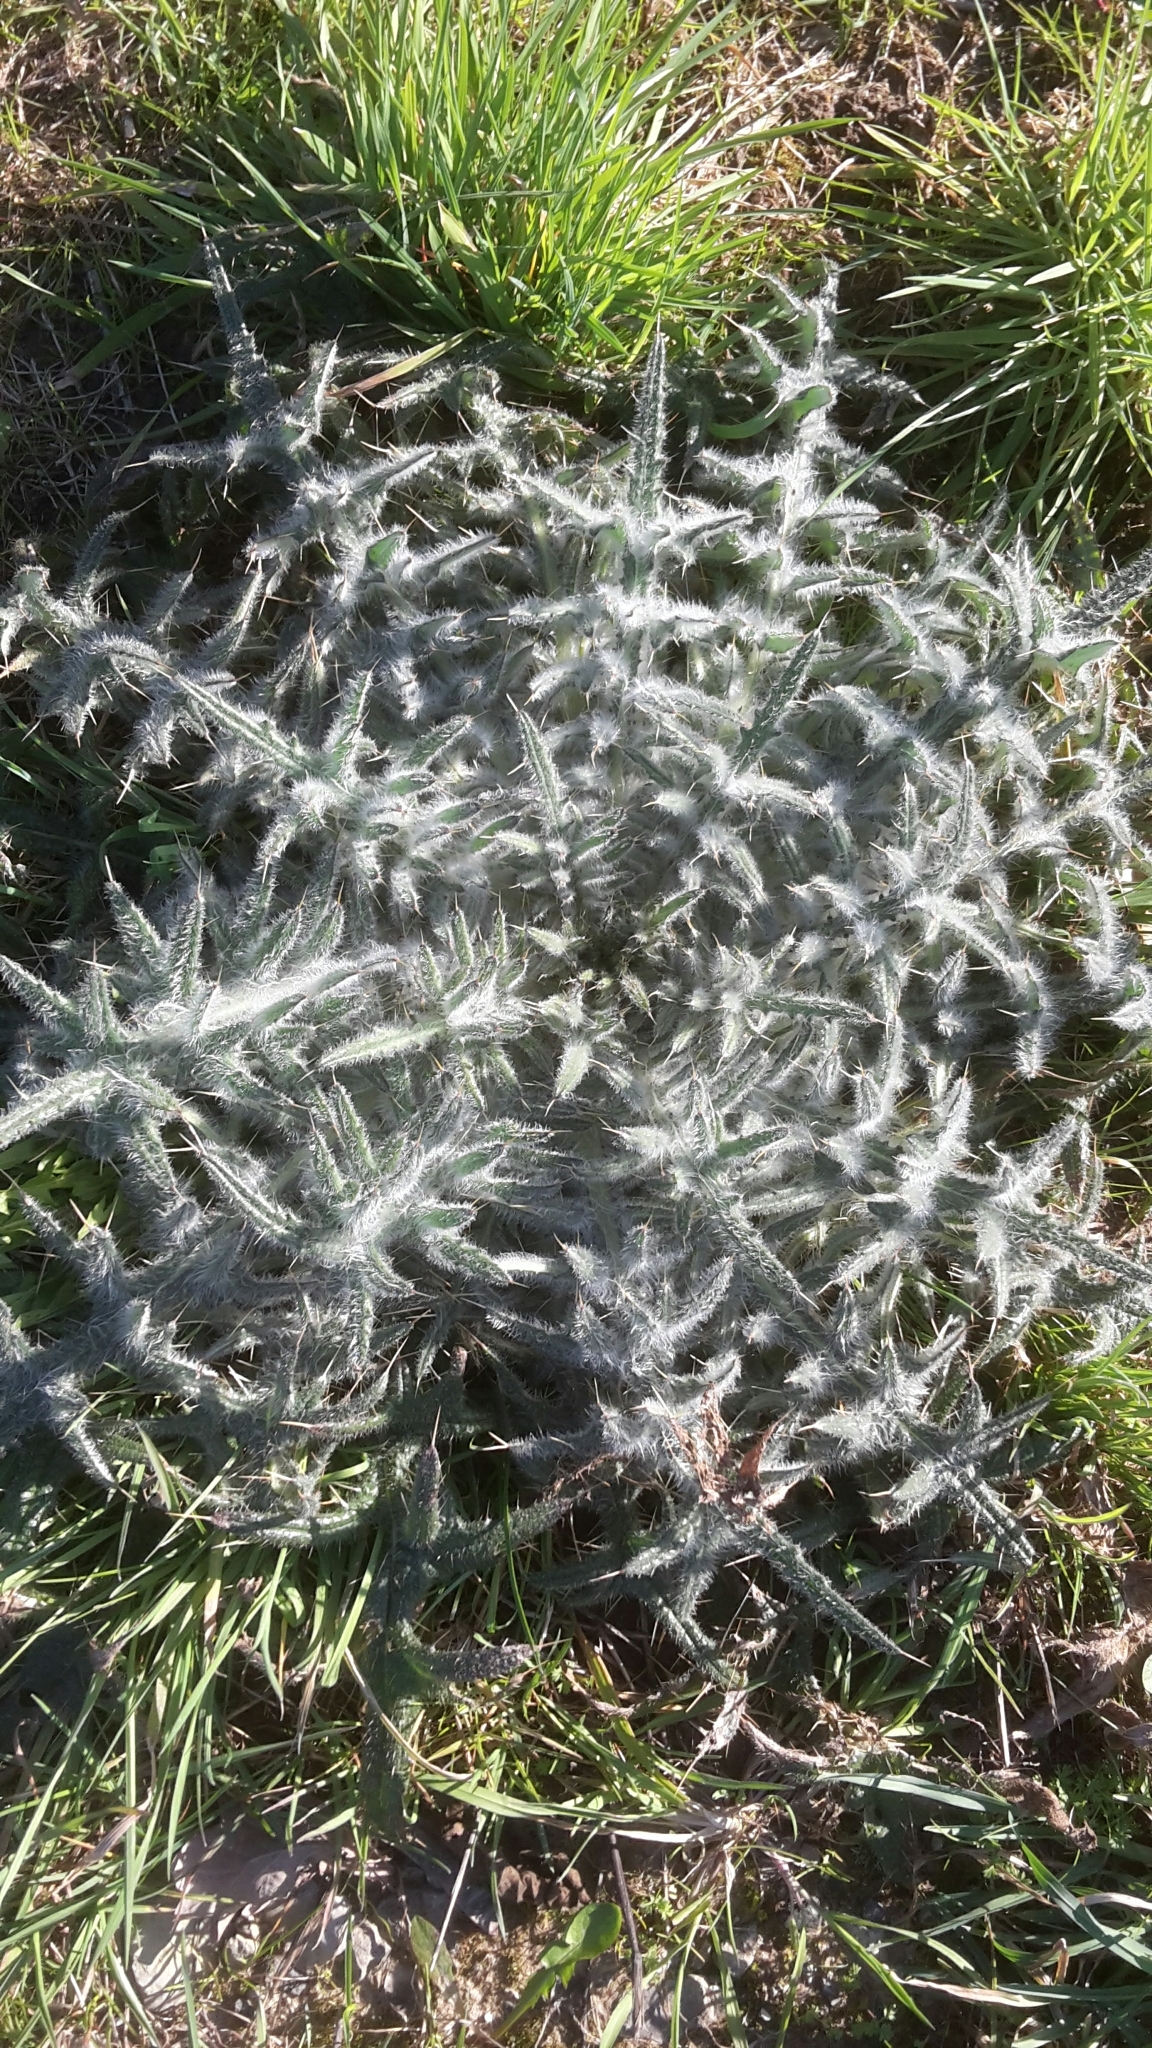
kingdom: Plantae
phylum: Tracheophyta
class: Magnoliopsida
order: Asterales
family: Asteraceae
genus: Cirsium
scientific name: Cirsium vulgare
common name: Bull thistle
